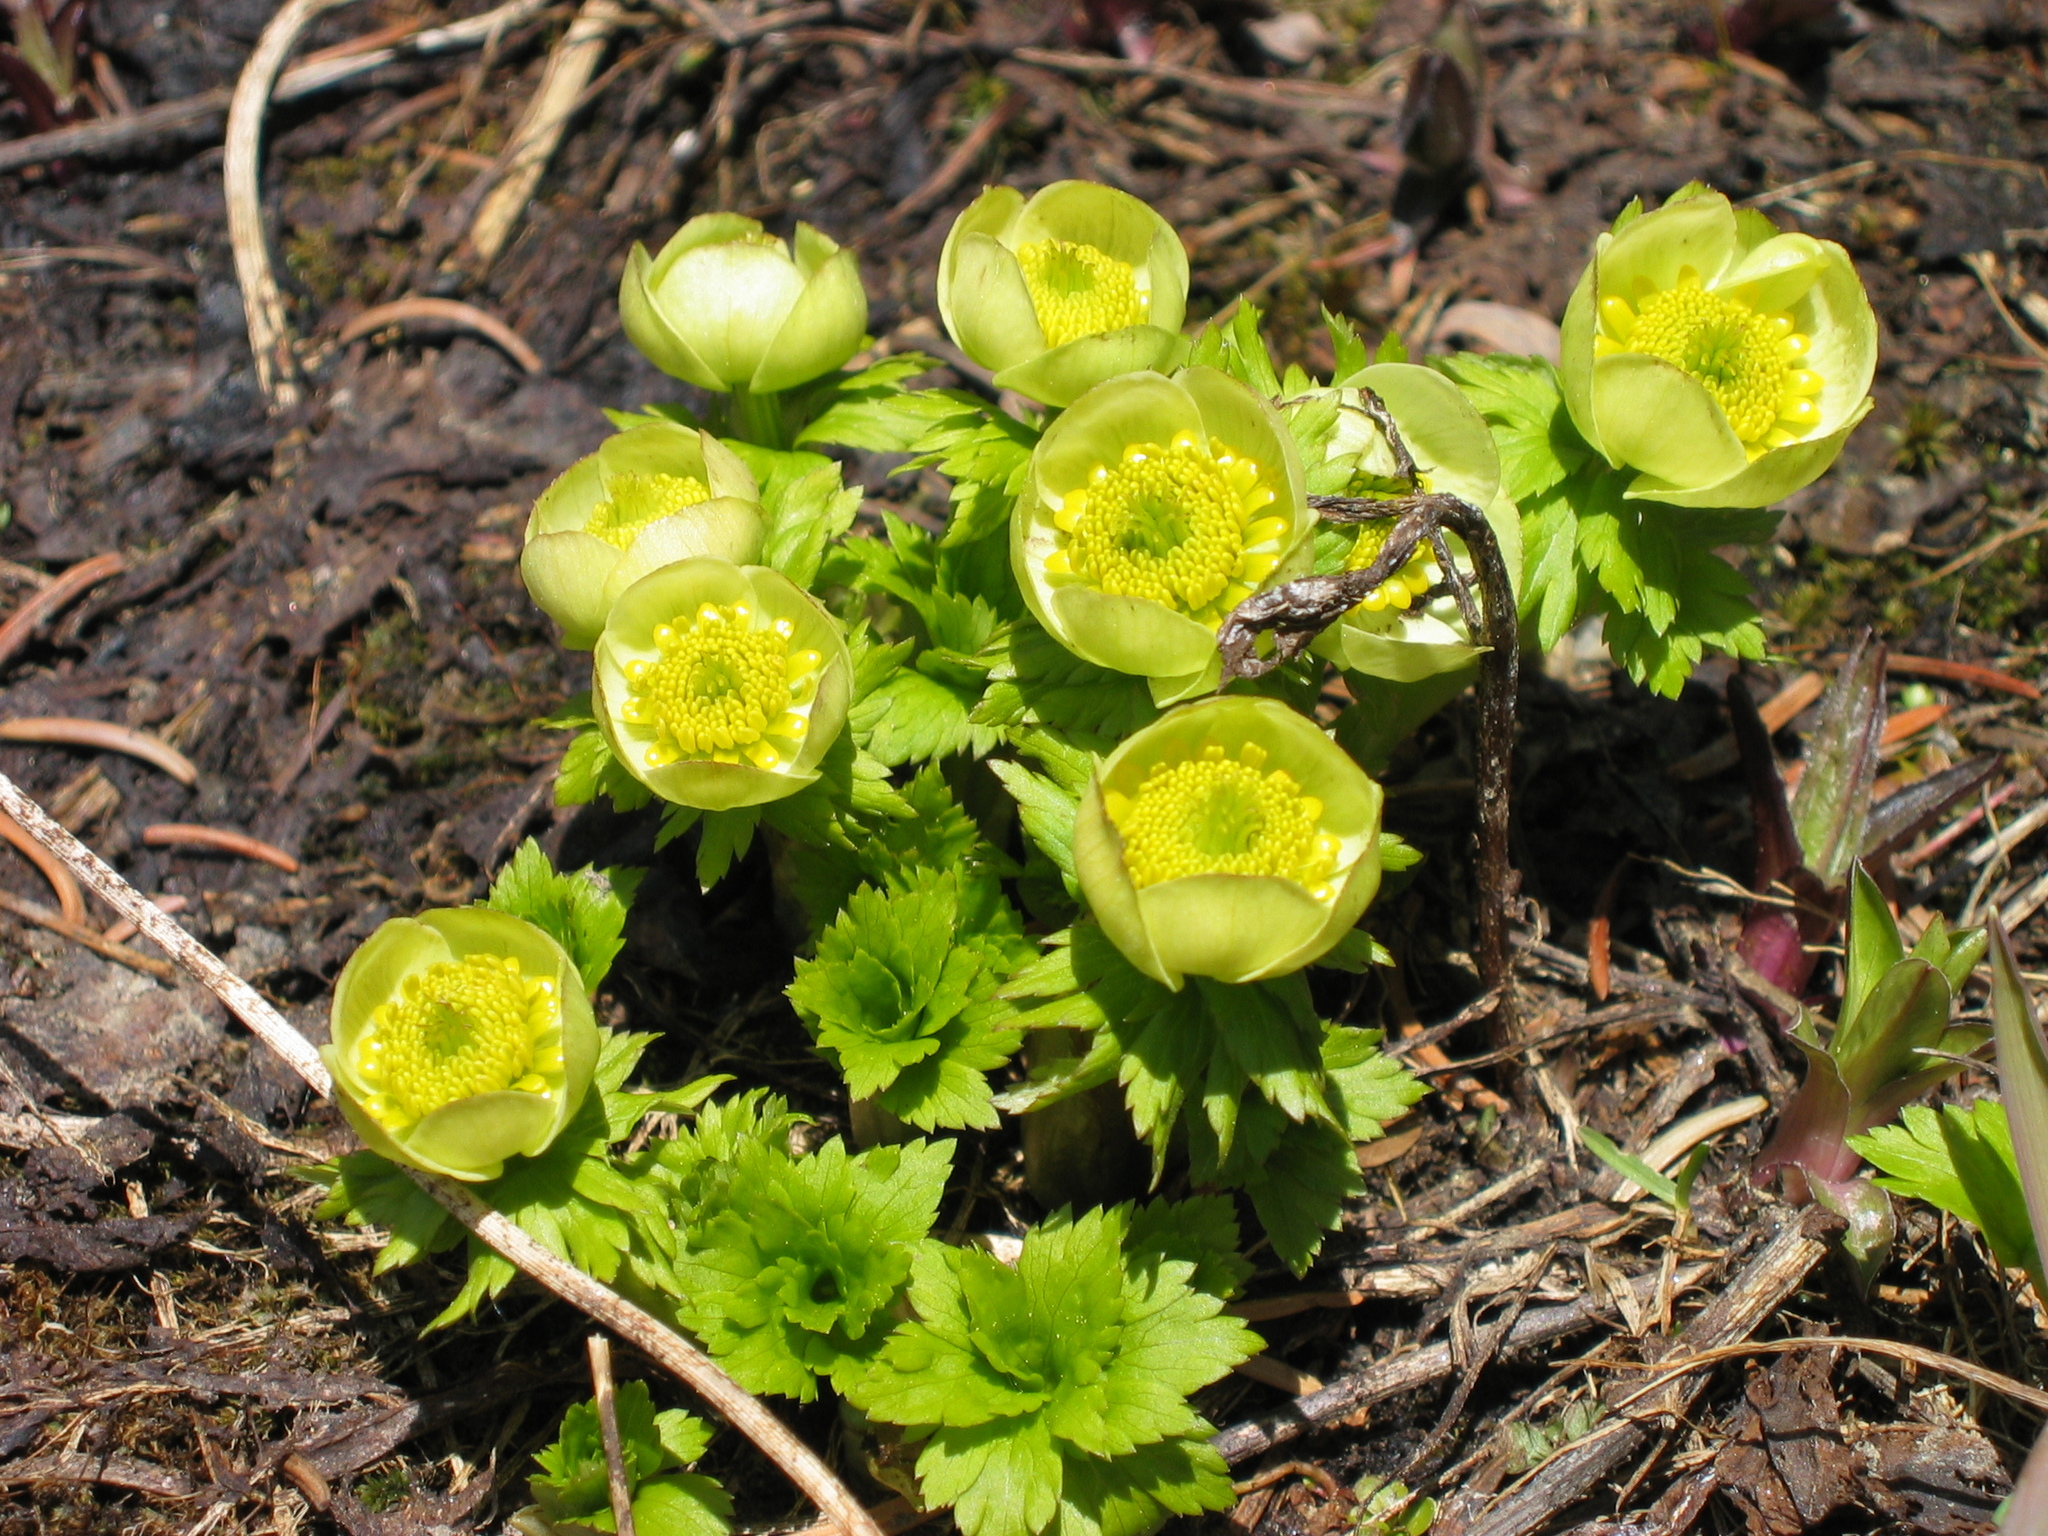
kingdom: Plantae
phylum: Tracheophyta
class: Magnoliopsida
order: Ranunculales
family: Ranunculaceae
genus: Trollius
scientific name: Trollius laxus
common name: American globeflower
